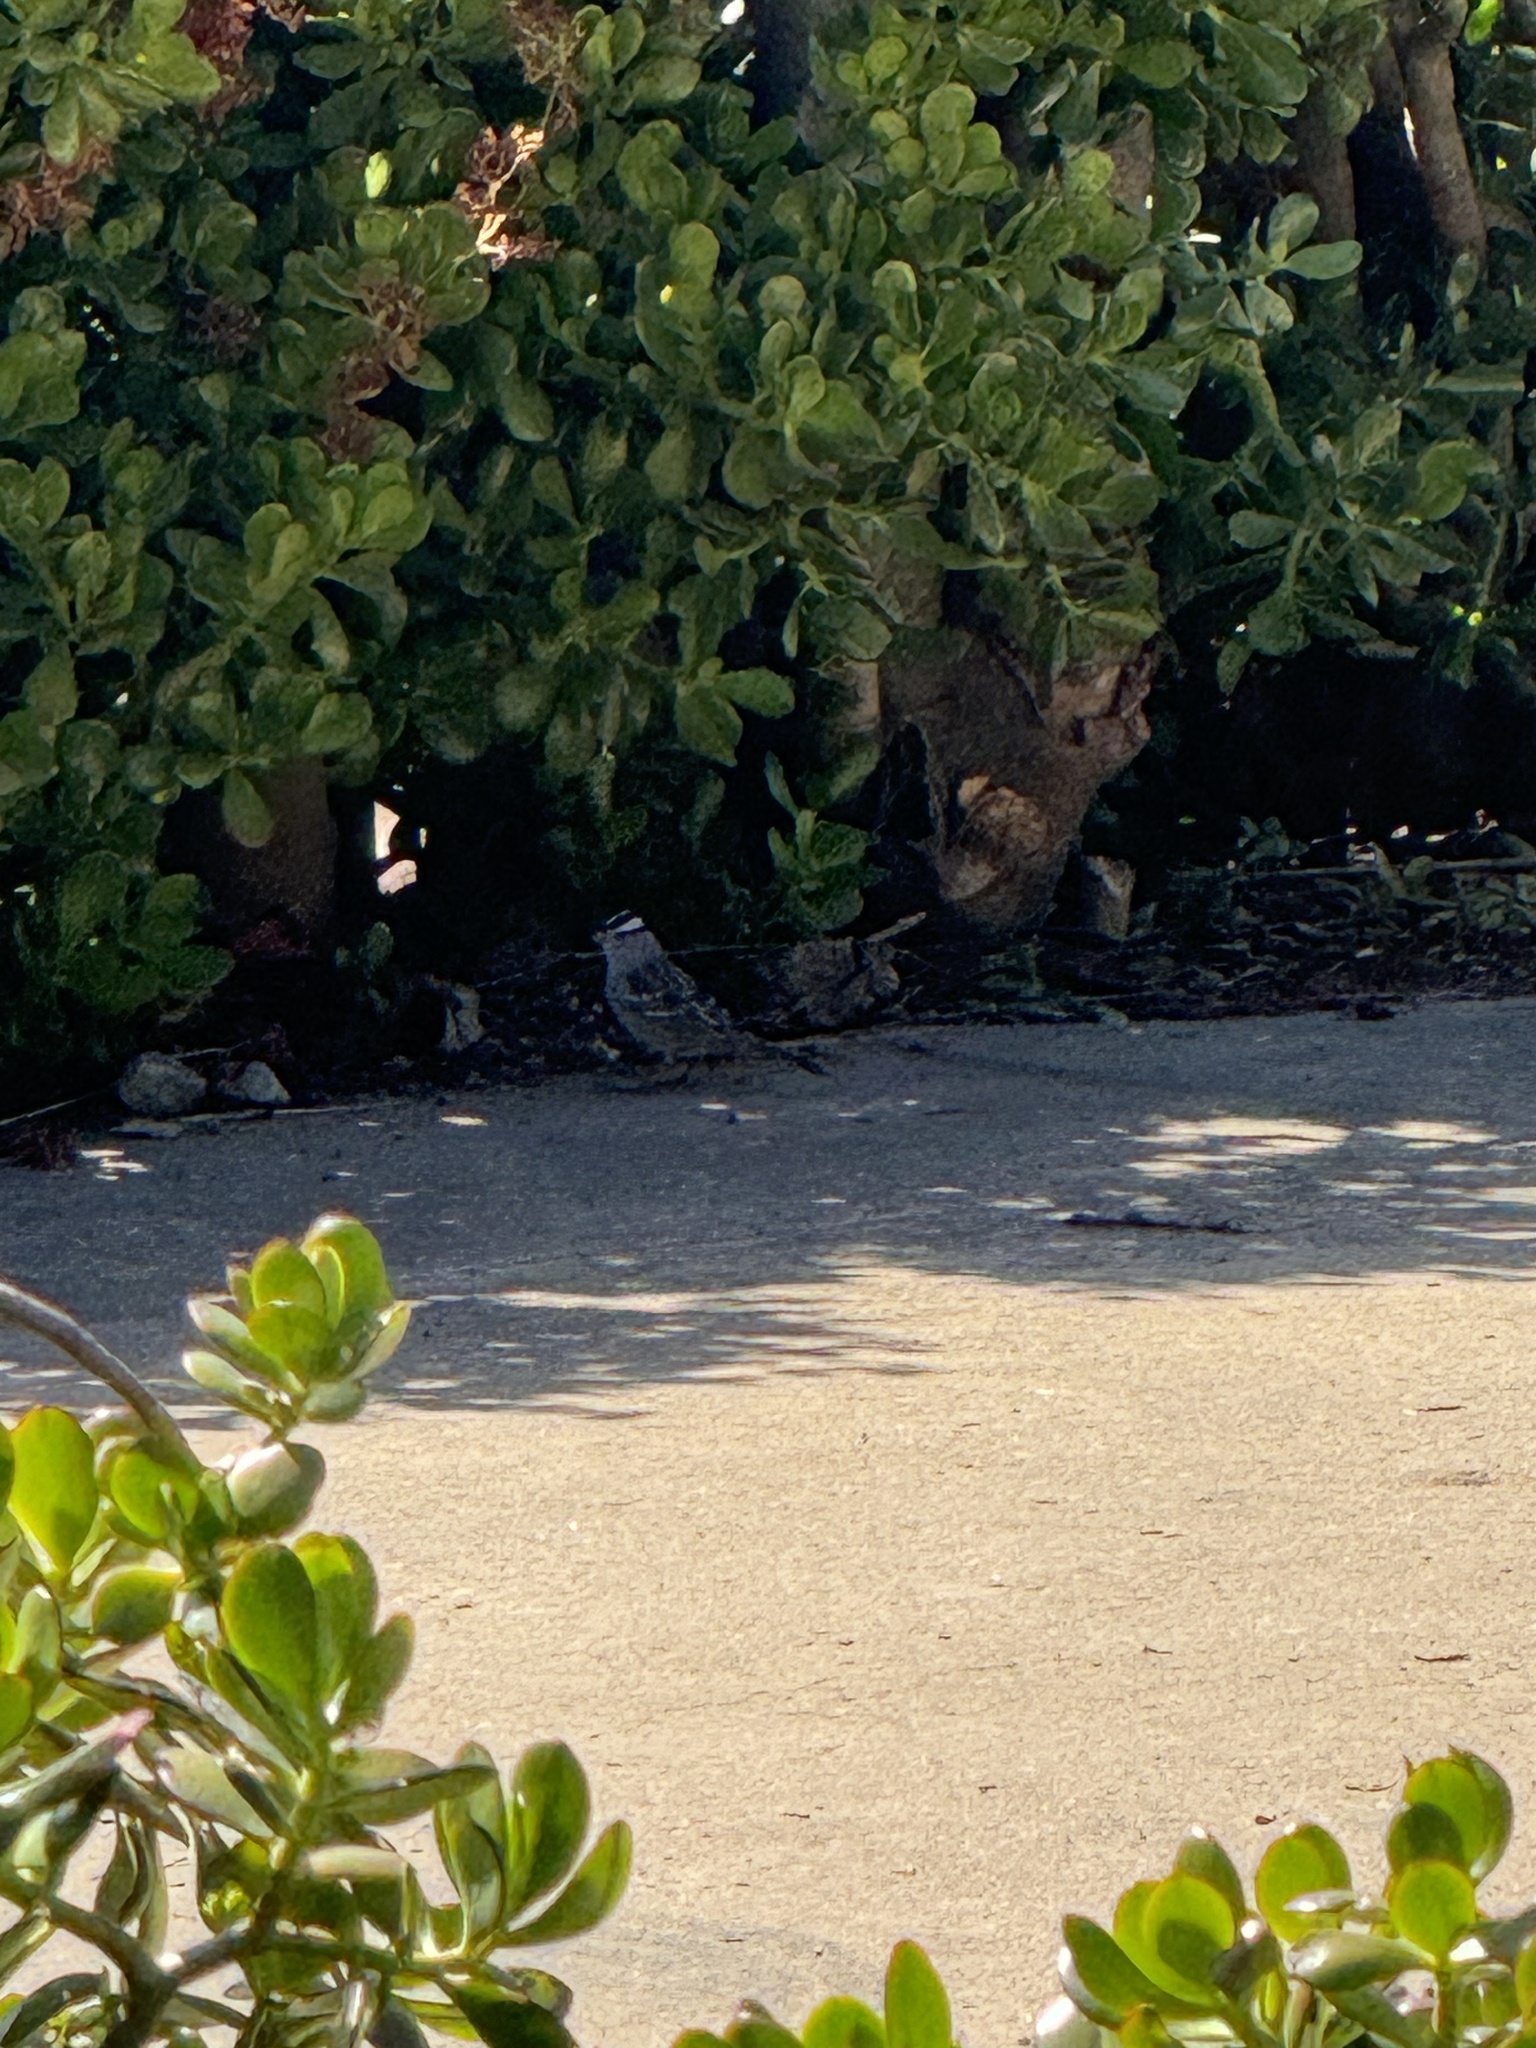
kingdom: Animalia
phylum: Chordata
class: Aves
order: Passeriformes
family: Passerellidae
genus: Zonotrichia
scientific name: Zonotrichia leucophrys
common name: White-crowned sparrow
